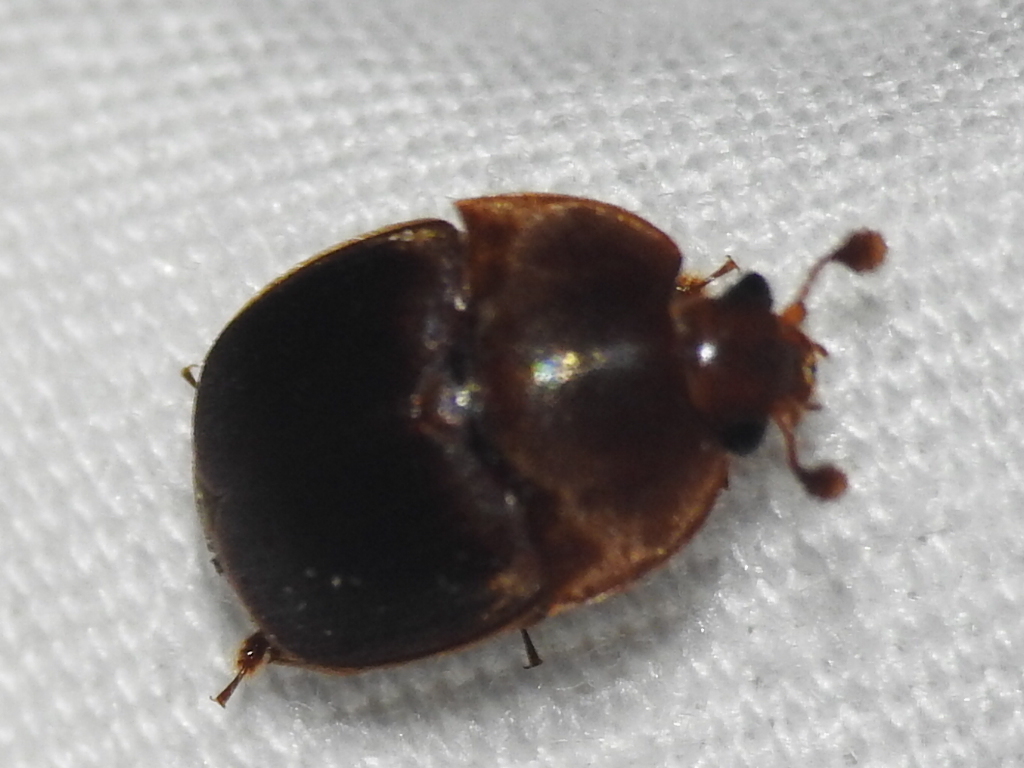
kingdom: Animalia
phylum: Arthropoda
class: Insecta
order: Coleoptera
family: Nitidulidae
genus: Aethina
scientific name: Aethina tumida
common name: Small hive beetle
